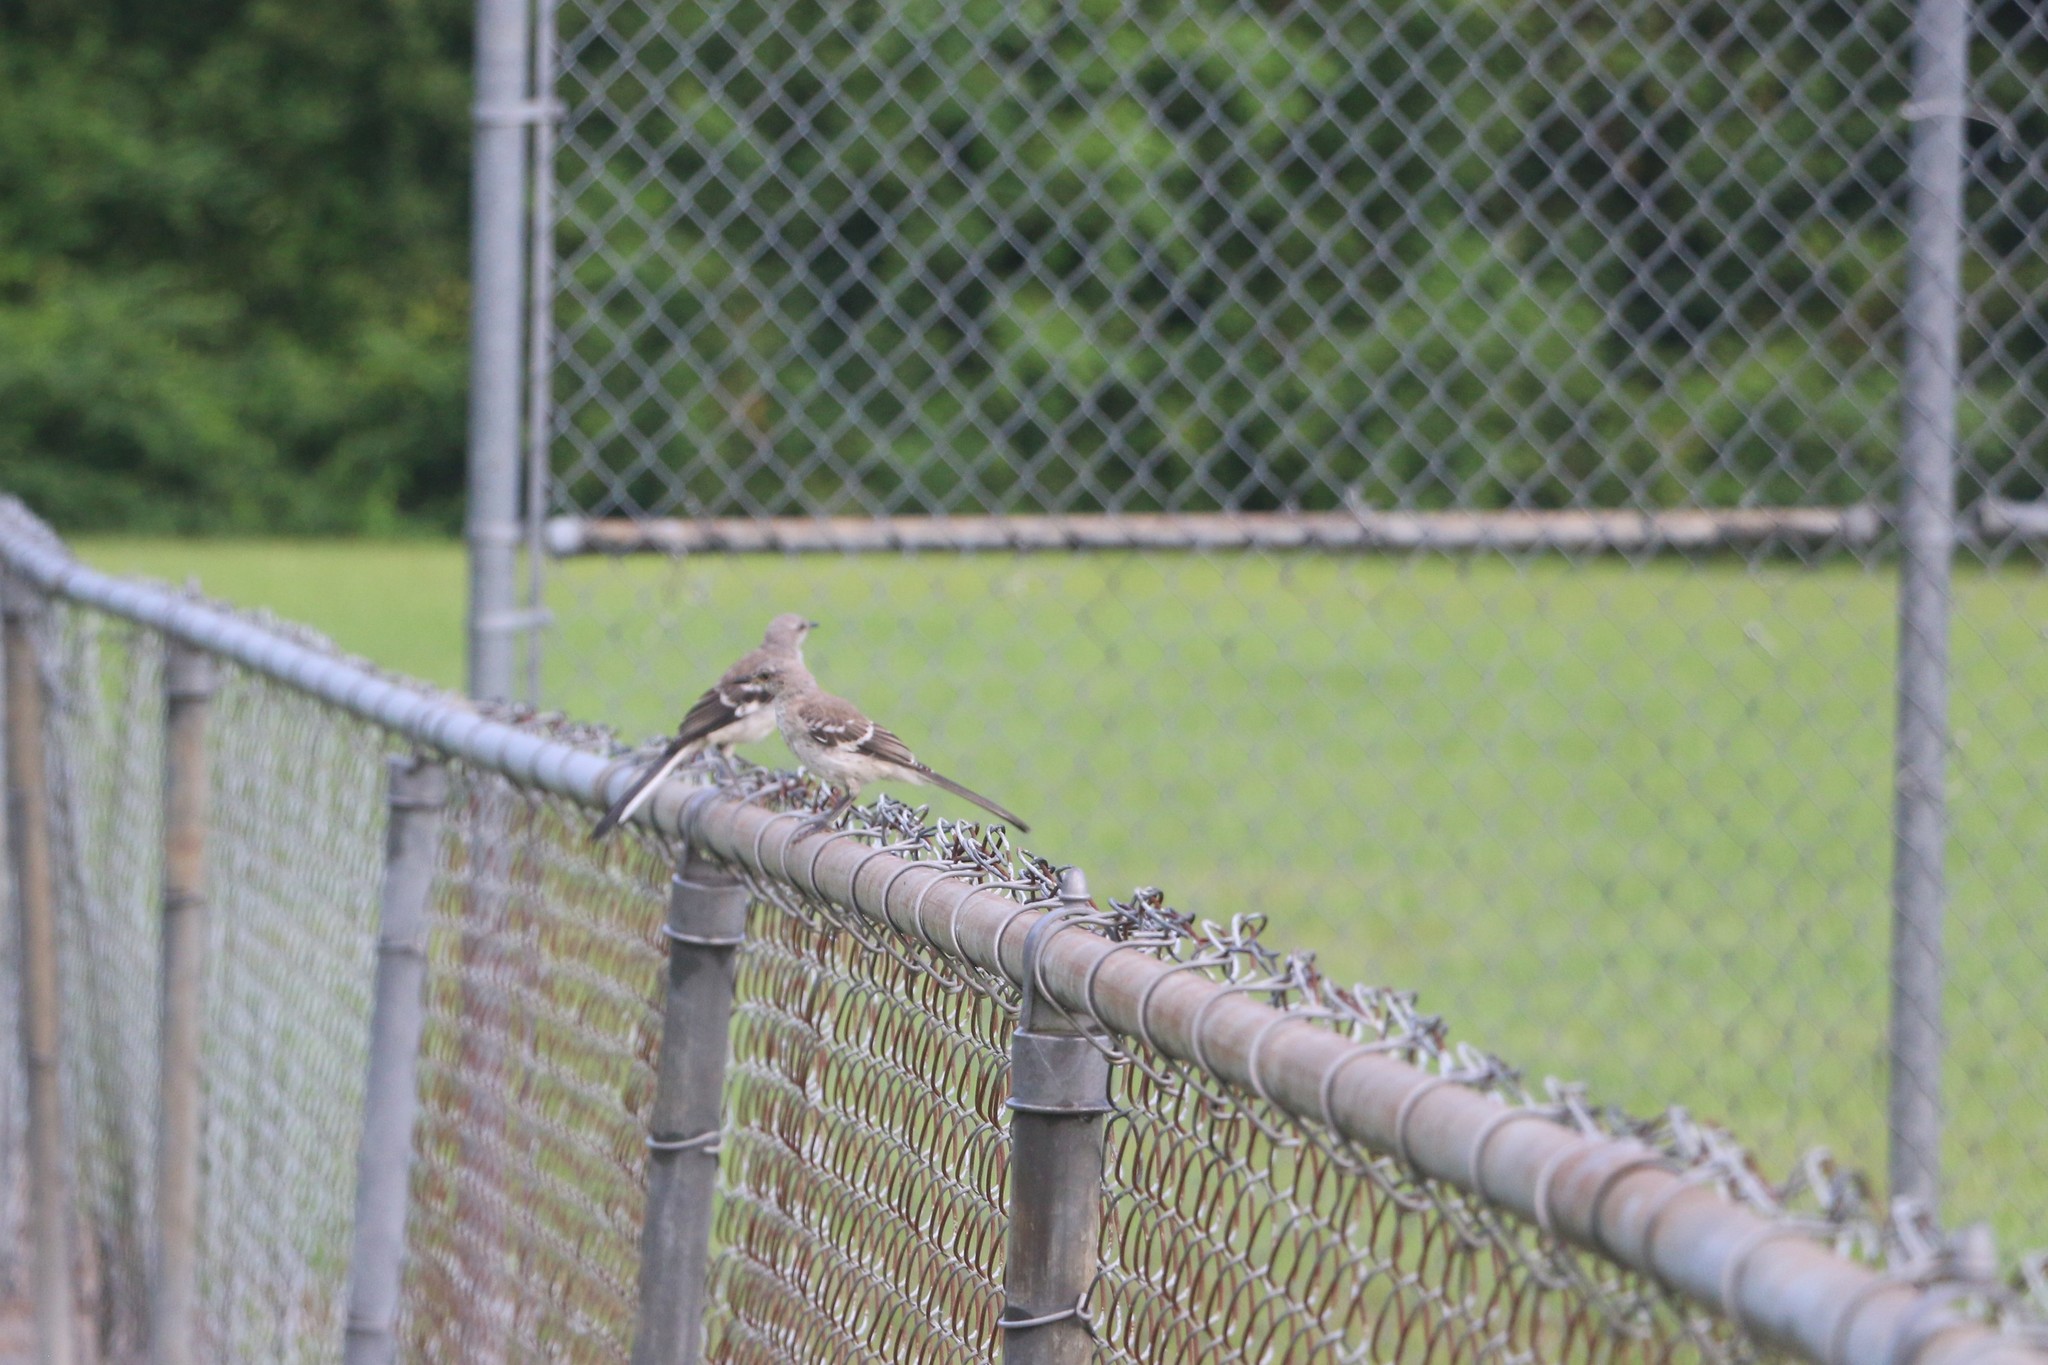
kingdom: Animalia
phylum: Chordata
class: Aves
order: Passeriformes
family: Mimidae
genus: Mimus
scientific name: Mimus polyglottos
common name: Northern mockingbird
